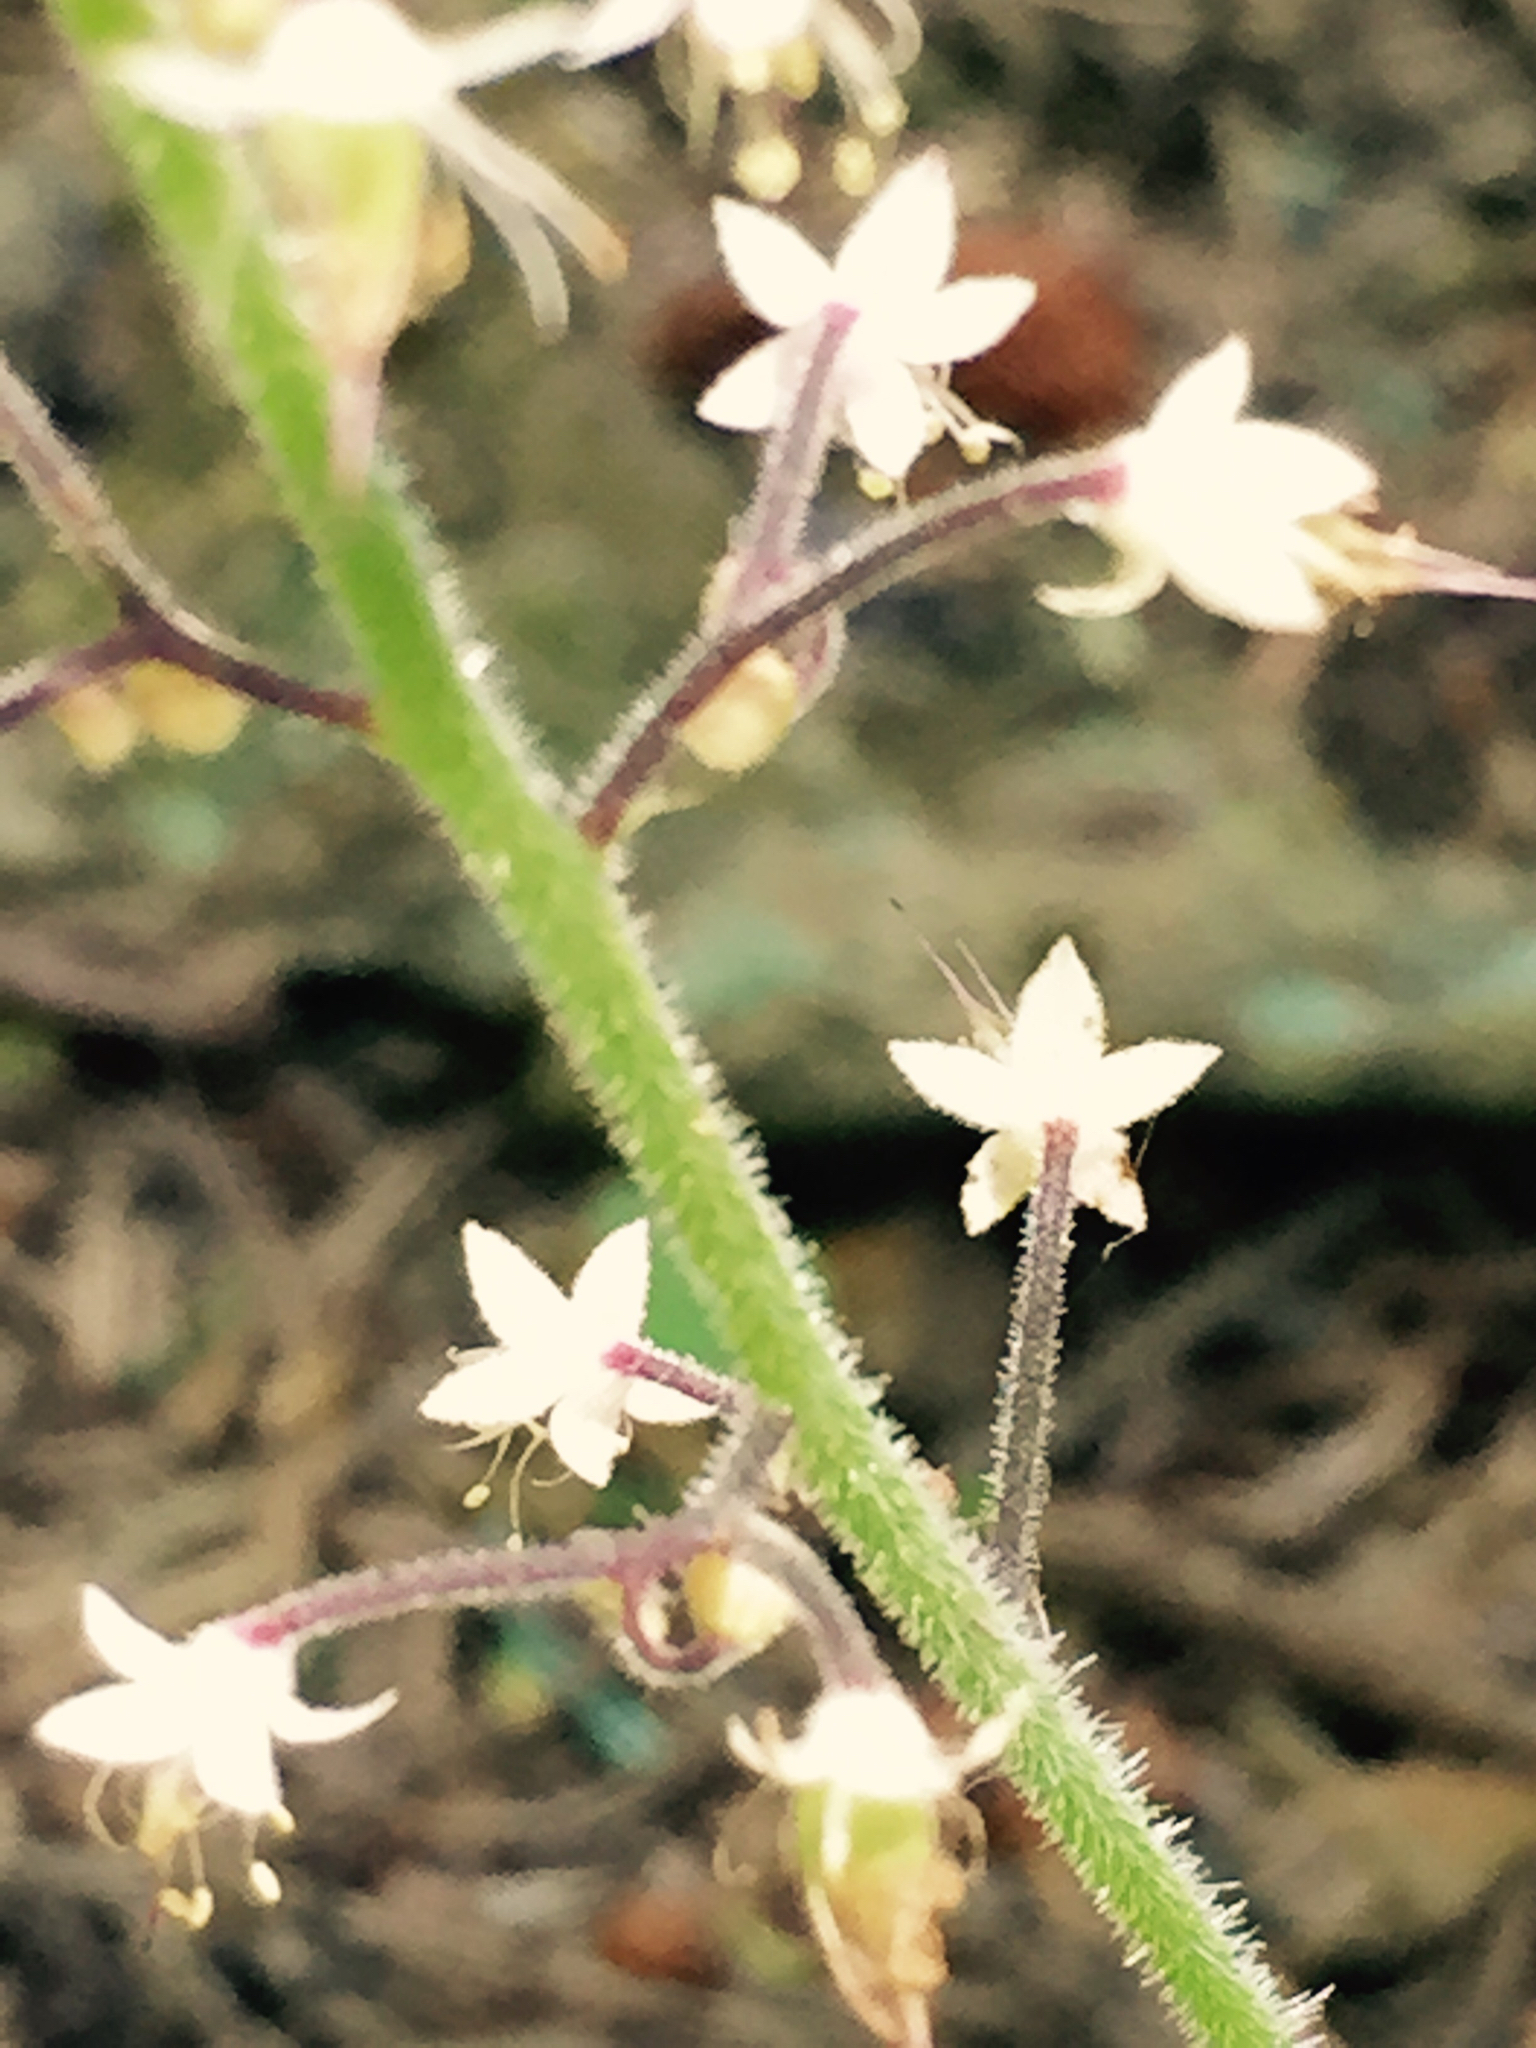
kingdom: Plantae
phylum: Tracheophyta
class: Magnoliopsida
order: Saxifragales
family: Saxifragaceae
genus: Tiarella
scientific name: Tiarella trifoliata
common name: Sugar-scoop
